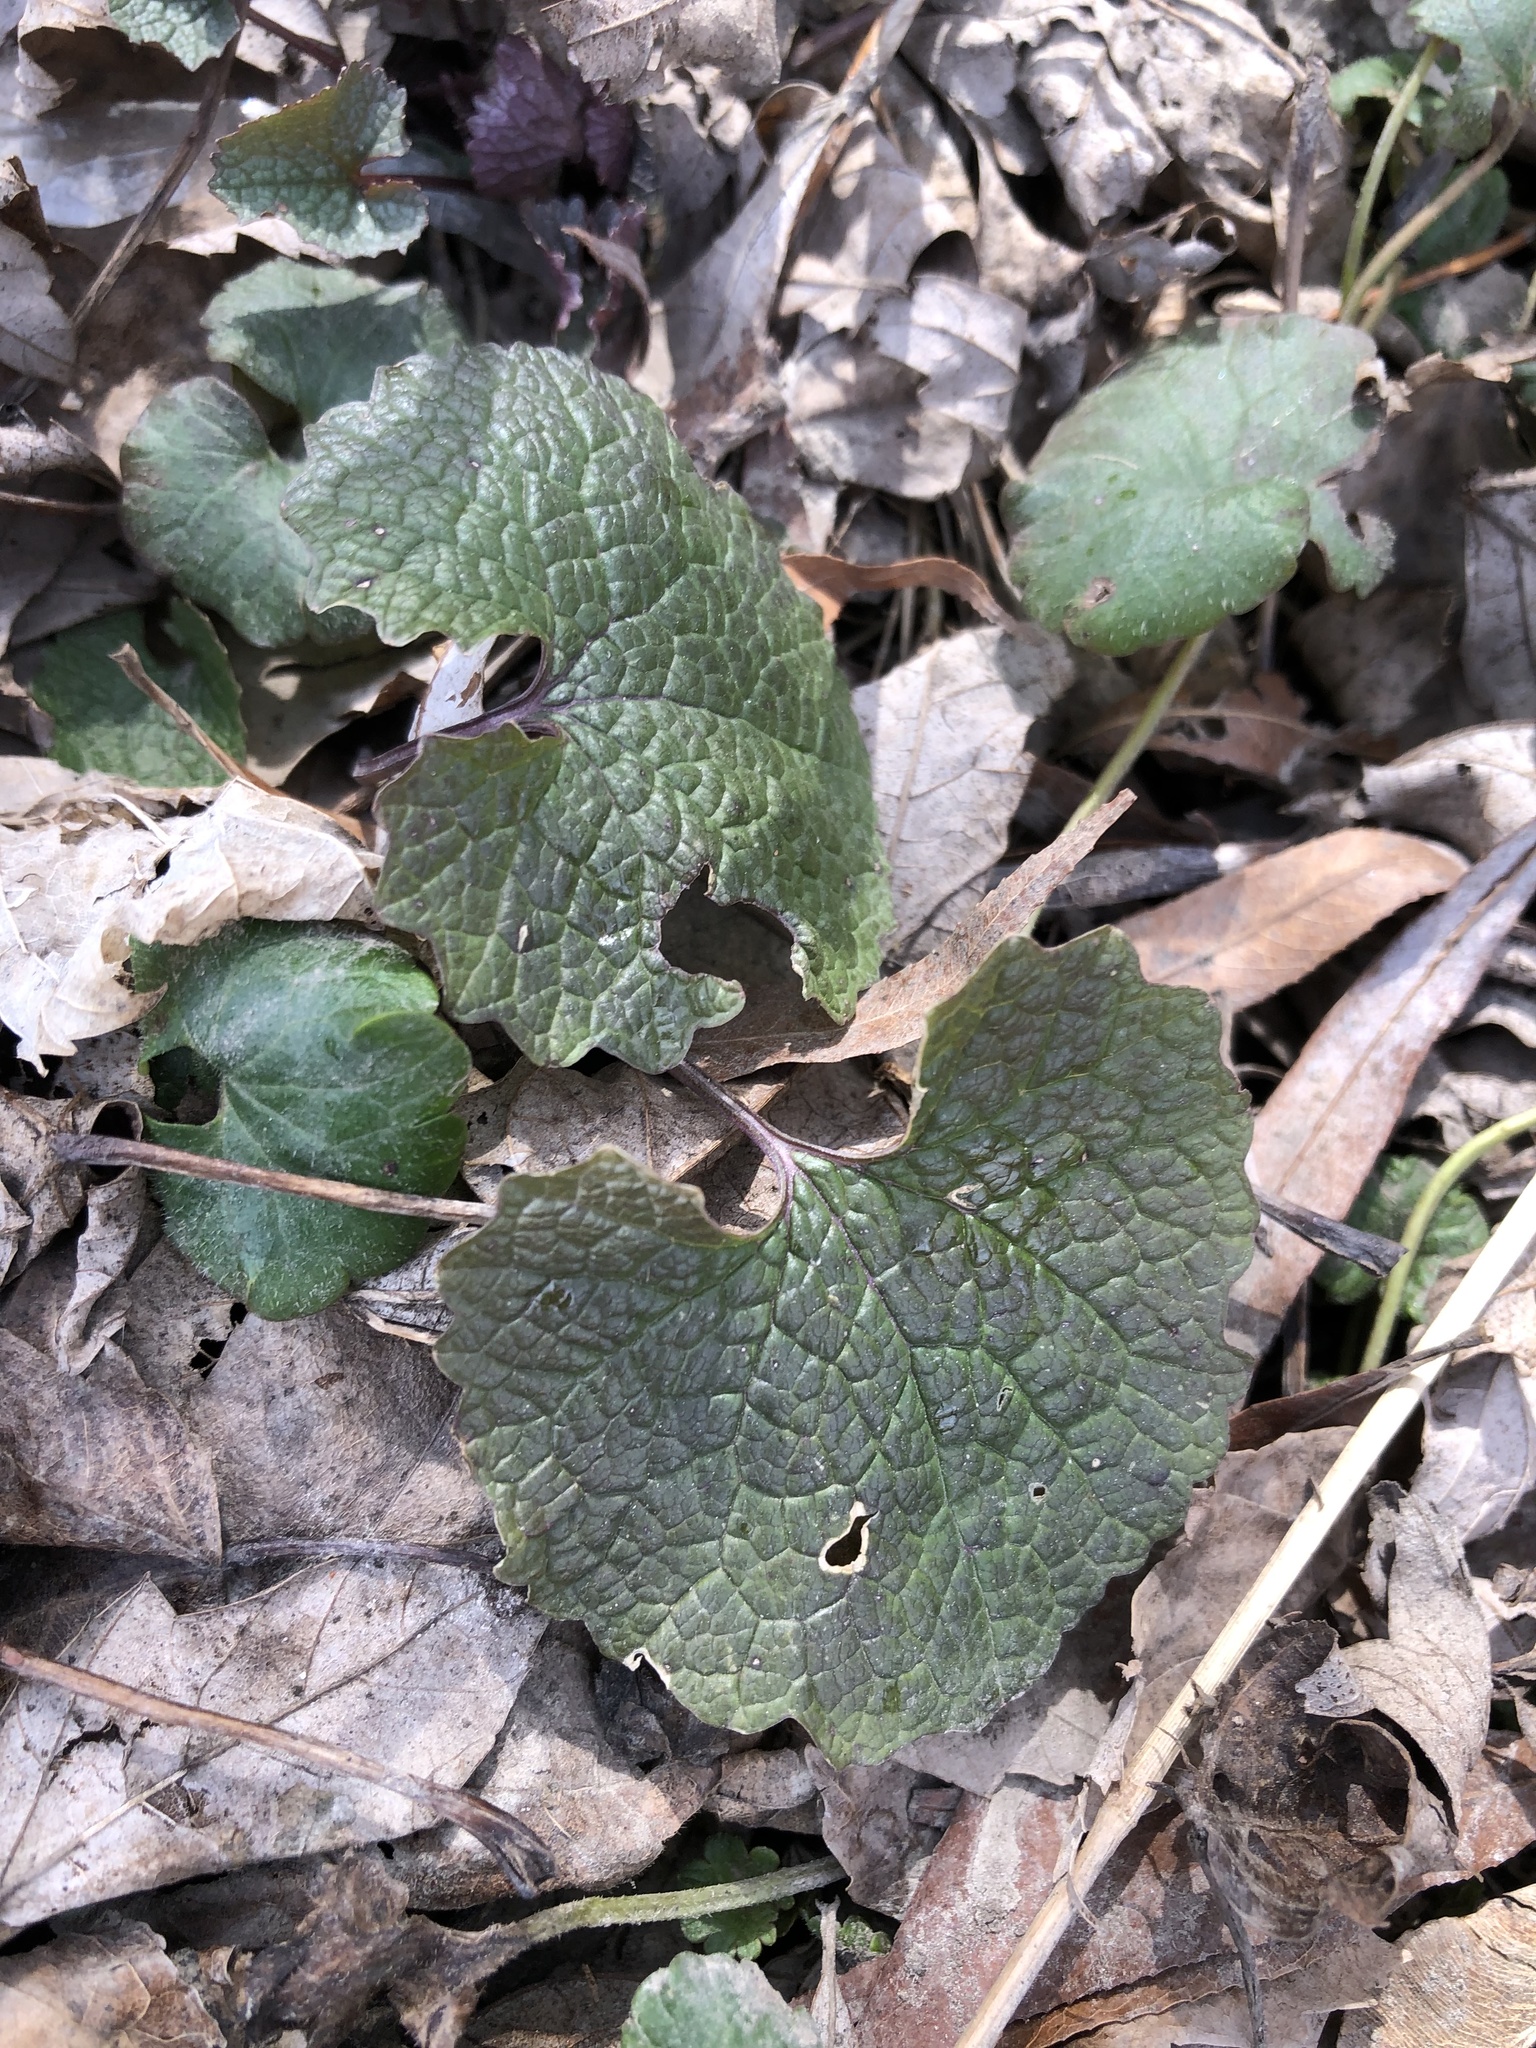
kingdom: Plantae
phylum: Tracheophyta
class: Magnoliopsida
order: Brassicales
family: Brassicaceae
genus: Alliaria
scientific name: Alliaria petiolata
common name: Garlic mustard
